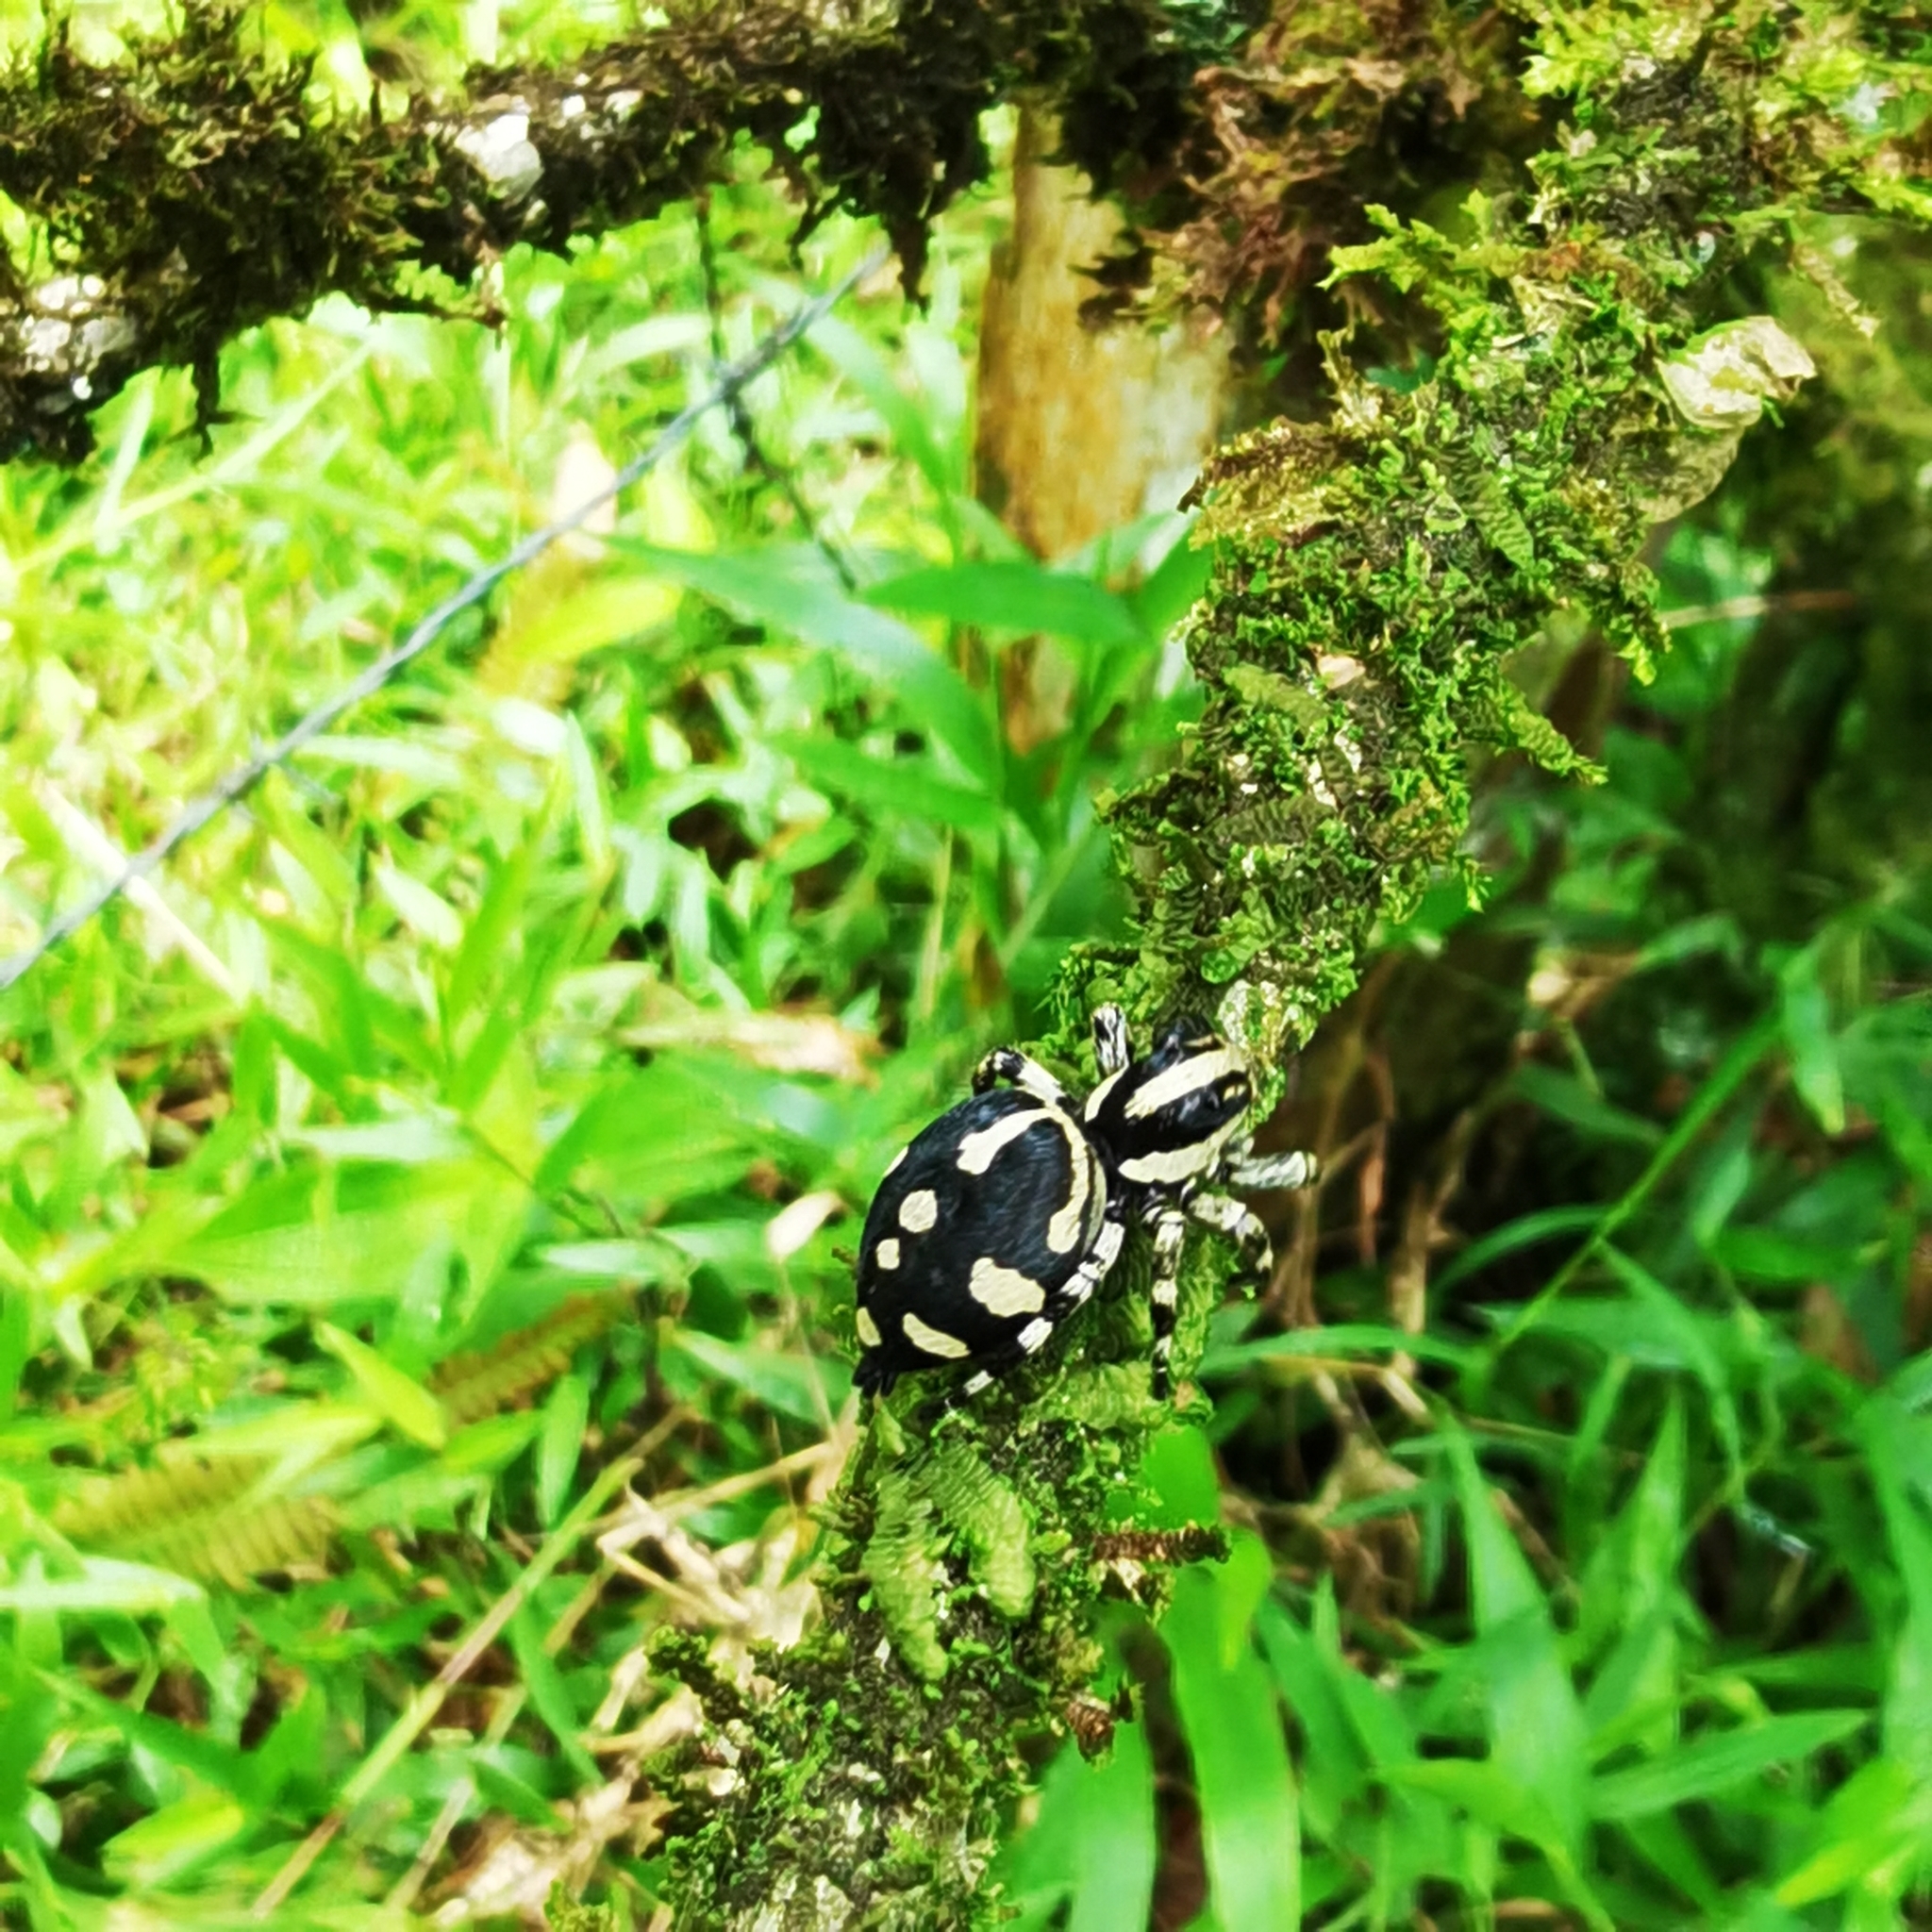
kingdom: Animalia
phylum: Arthropoda
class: Arachnida
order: Araneae
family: Salticidae
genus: Phiale
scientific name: Phiale guttata
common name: Jumping spiders
